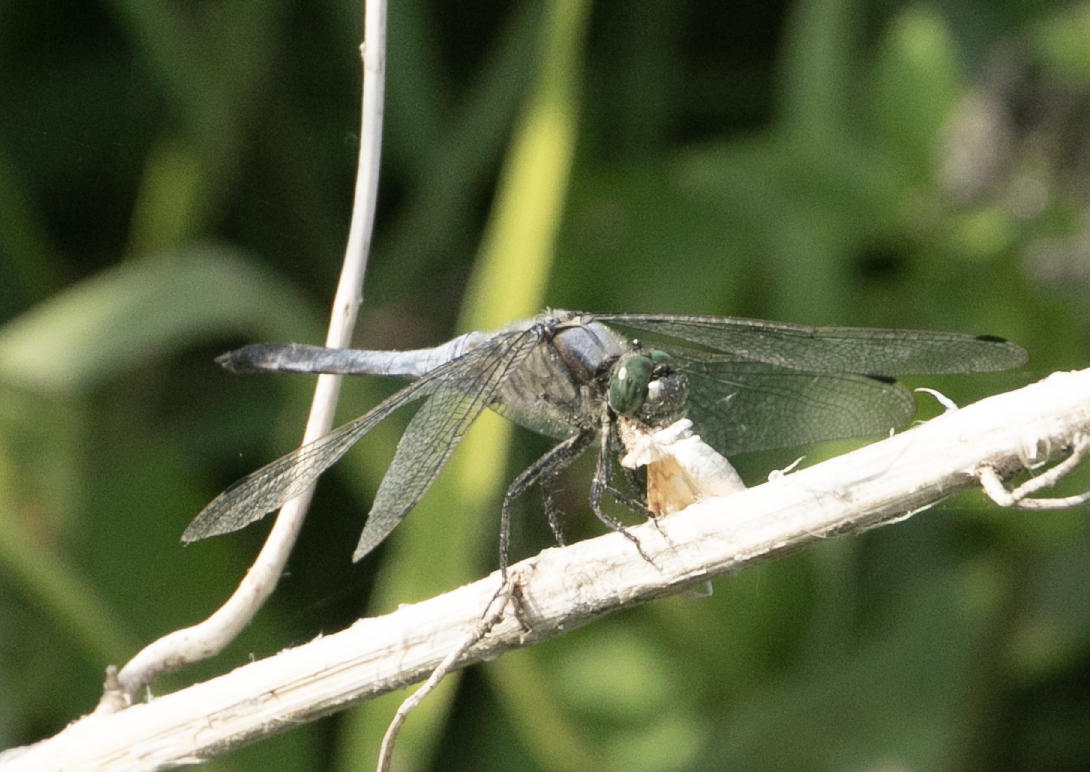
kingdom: Animalia
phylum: Arthropoda
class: Insecta
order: Odonata
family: Libellulidae
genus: Orthetrum
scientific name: Orthetrum cancellatum
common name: Black-tailed skimmer
